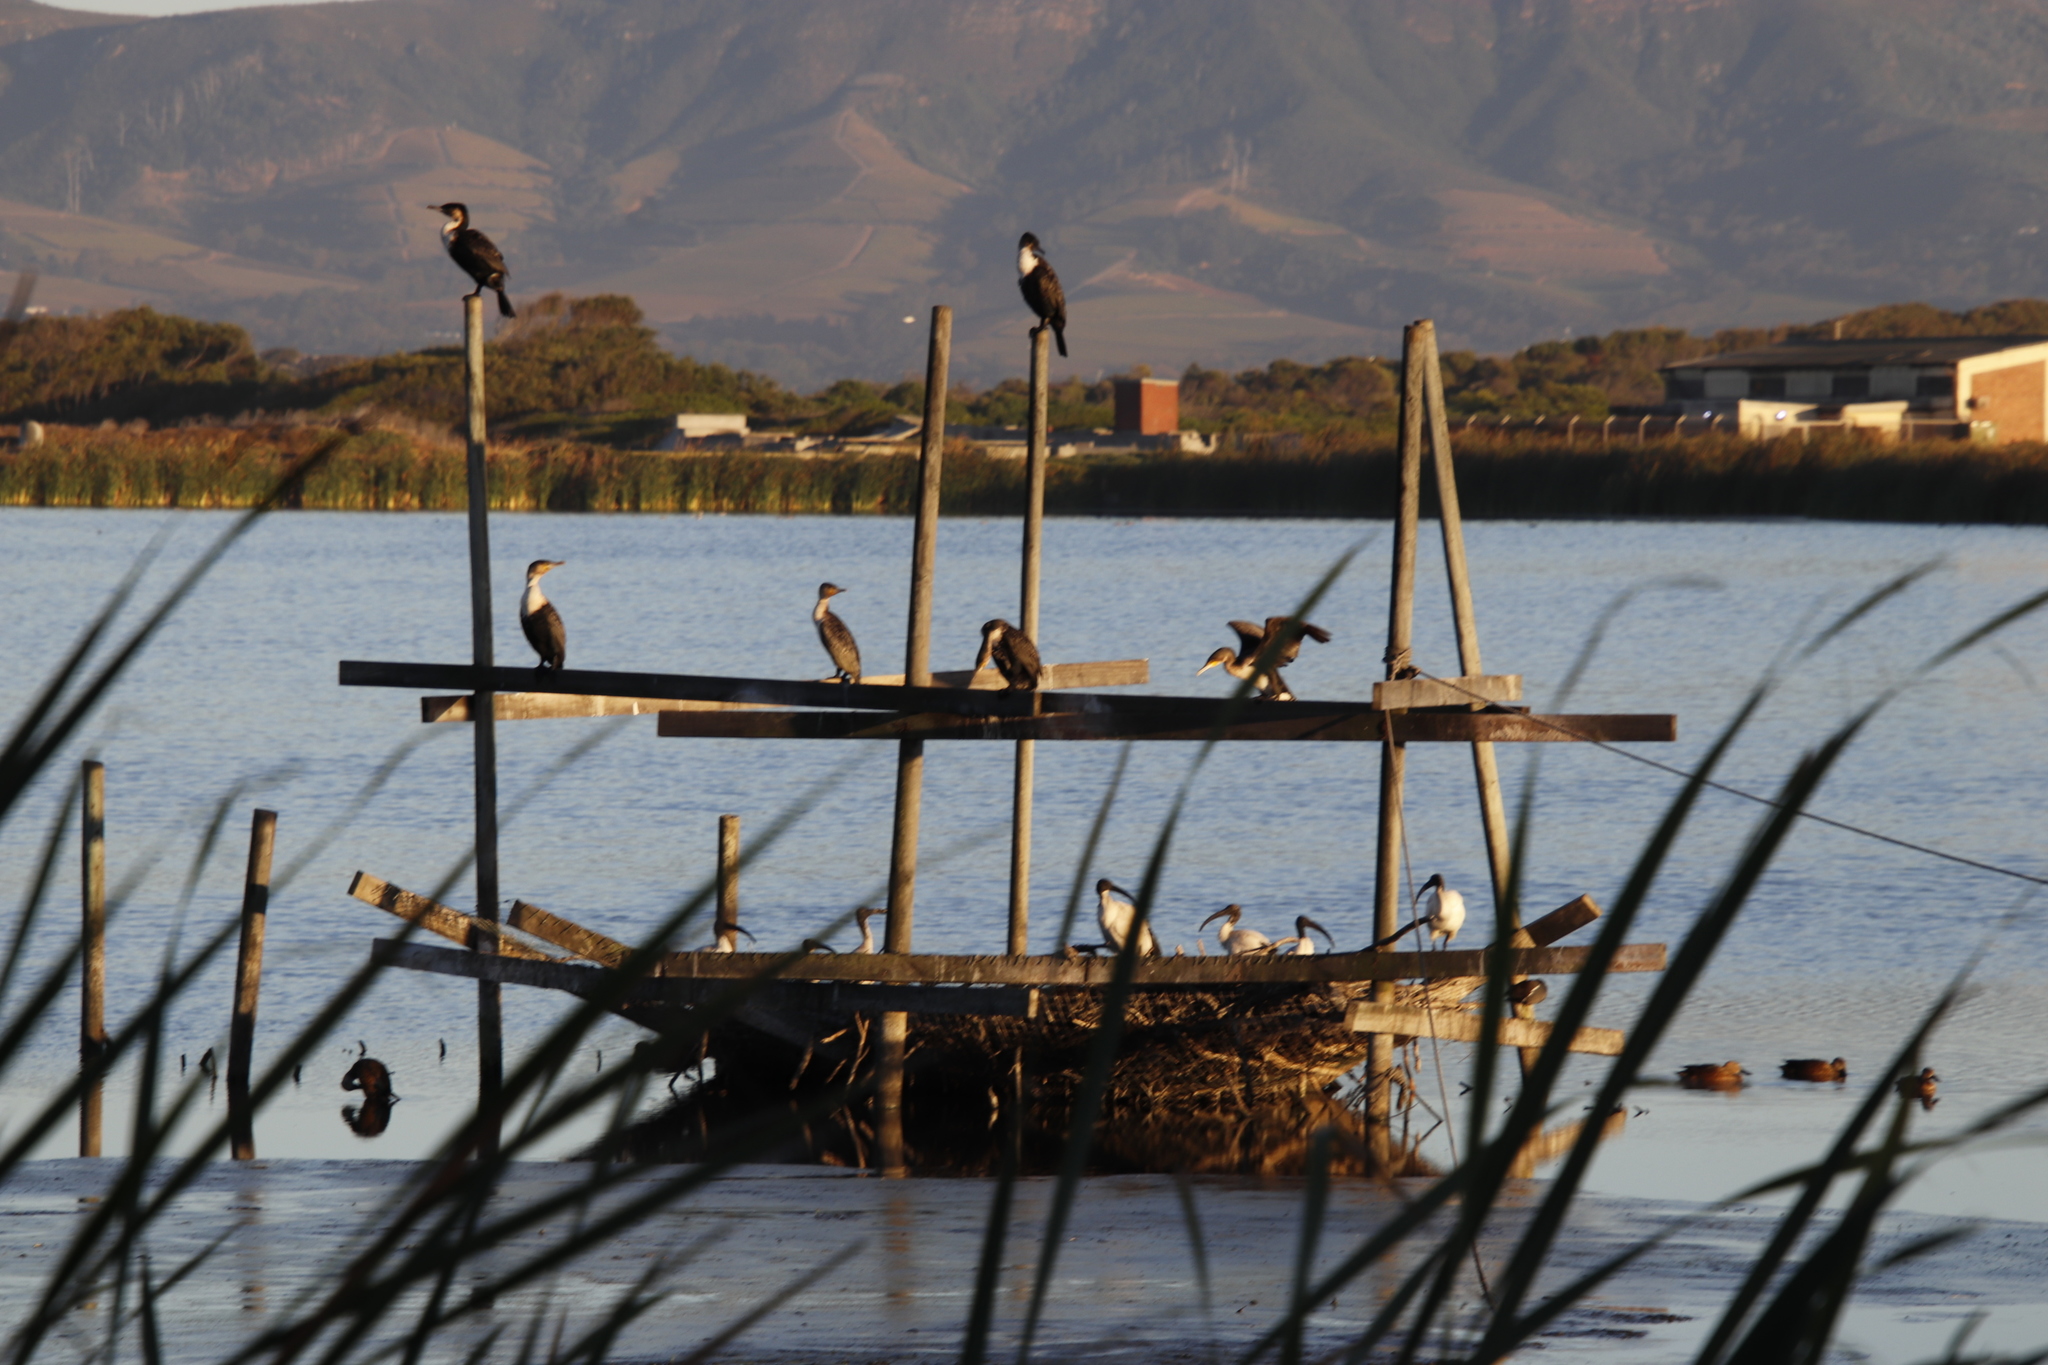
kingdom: Animalia
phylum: Chordata
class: Aves
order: Suliformes
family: Phalacrocoracidae
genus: Phalacrocorax
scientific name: Phalacrocorax carbo
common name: Great cormorant
